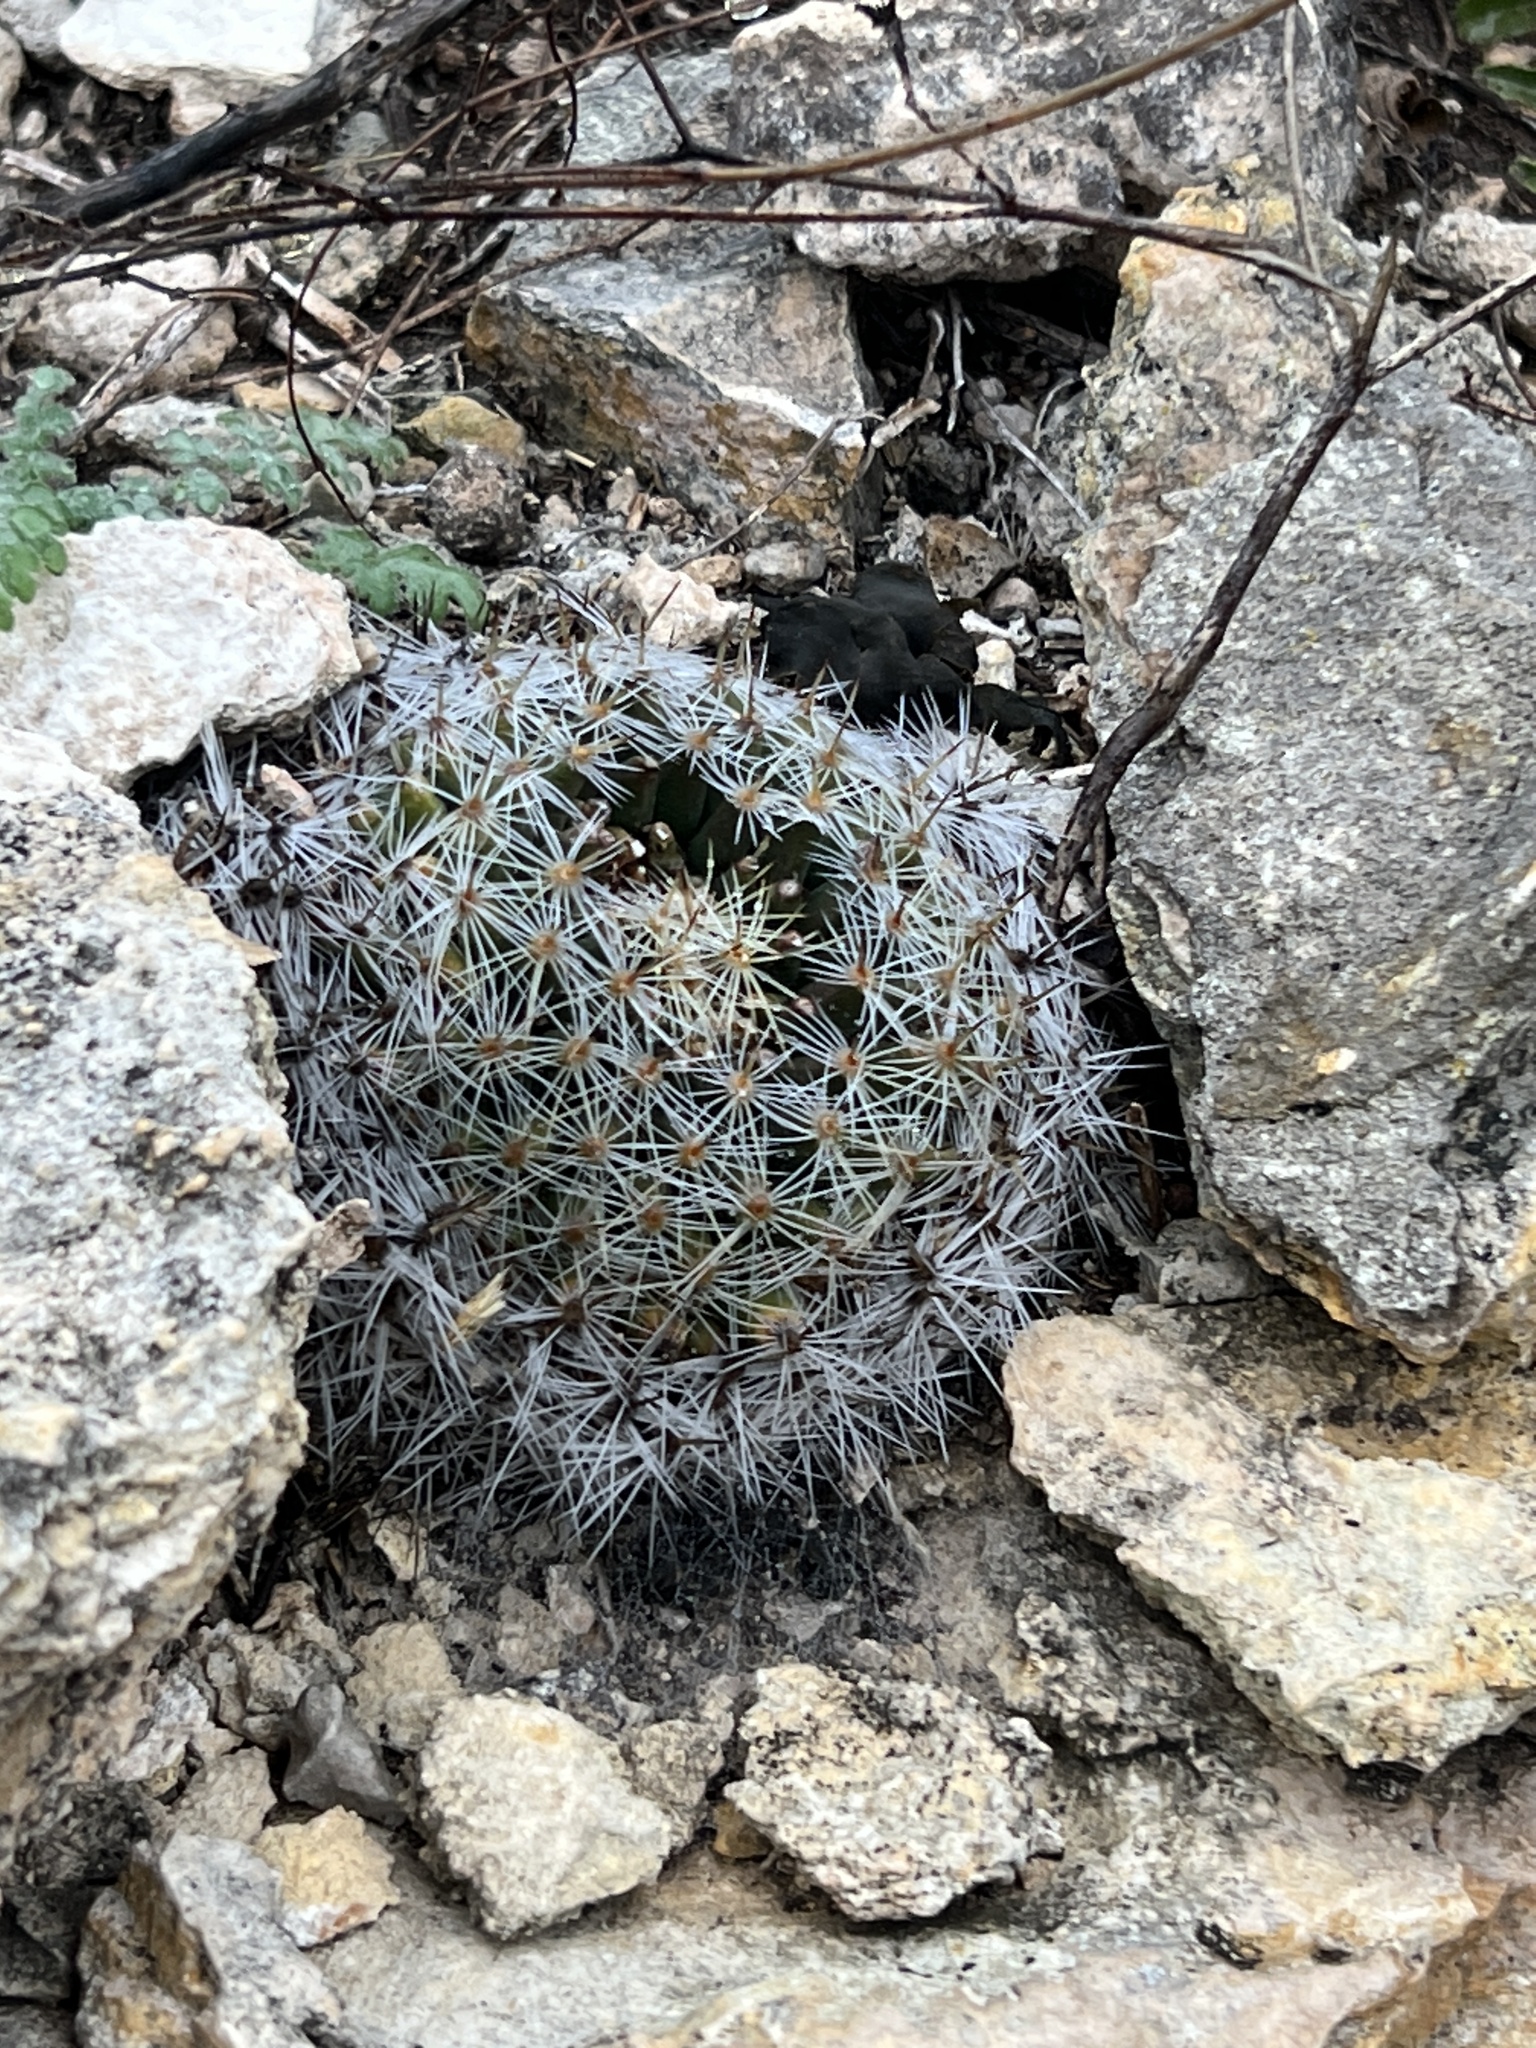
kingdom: Plantae
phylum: Tracheophyta
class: Magnoliopsida
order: Caryophyllales
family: Cactaceae
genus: Mammillaria
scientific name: Mammillaria heyderi
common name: Little nipple cactus
